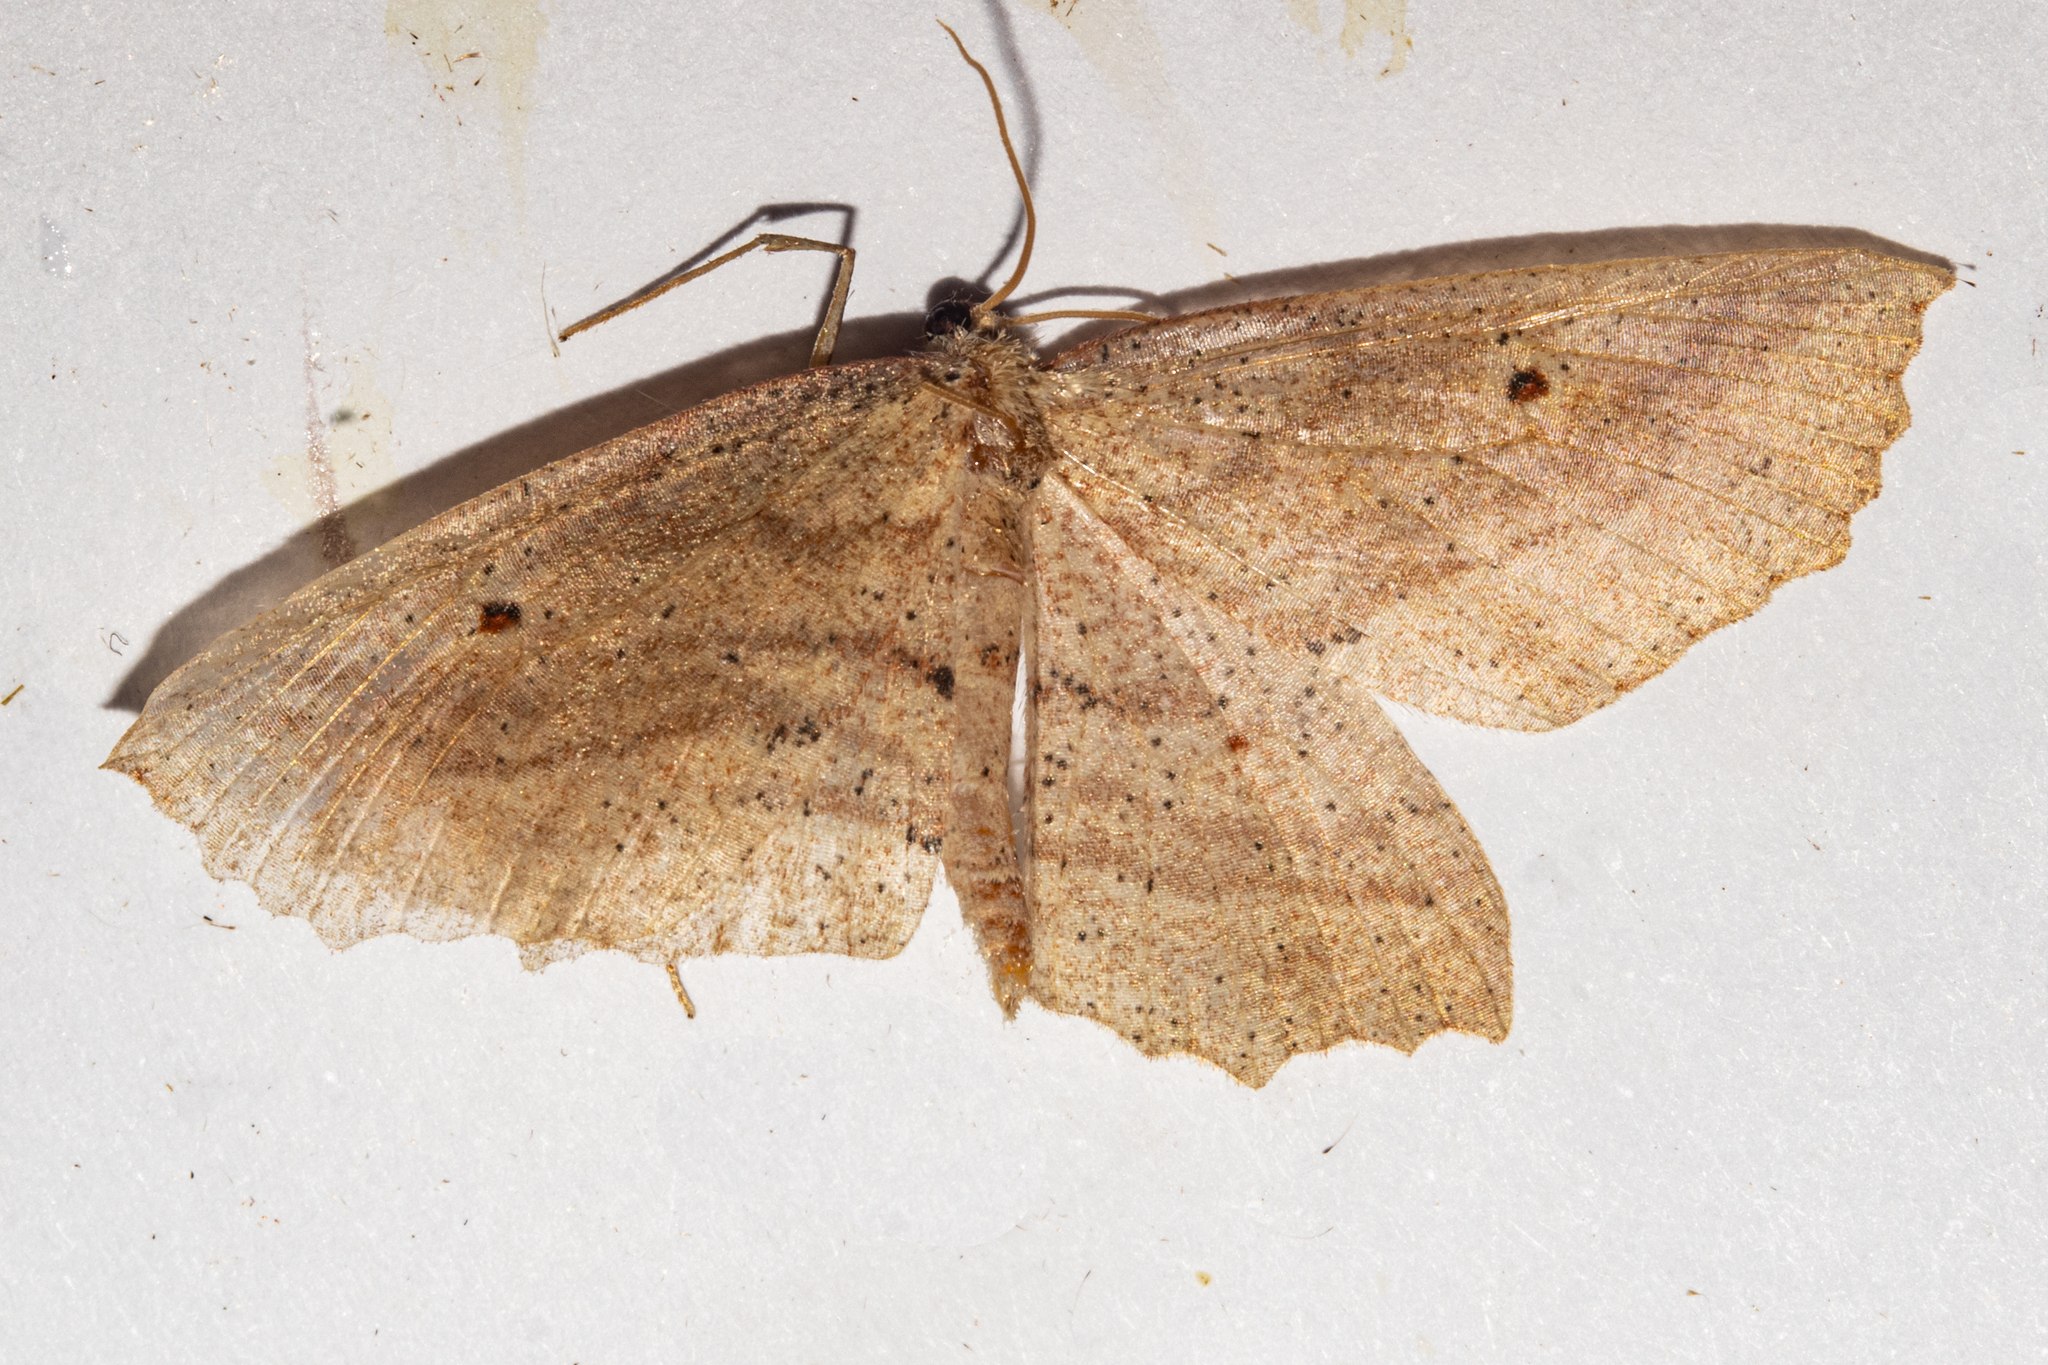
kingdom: Animalia
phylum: Arthropoda
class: Insecta
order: Lepidoptera
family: Geometridae
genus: Xyridacma
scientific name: Xyridacma veronicae
